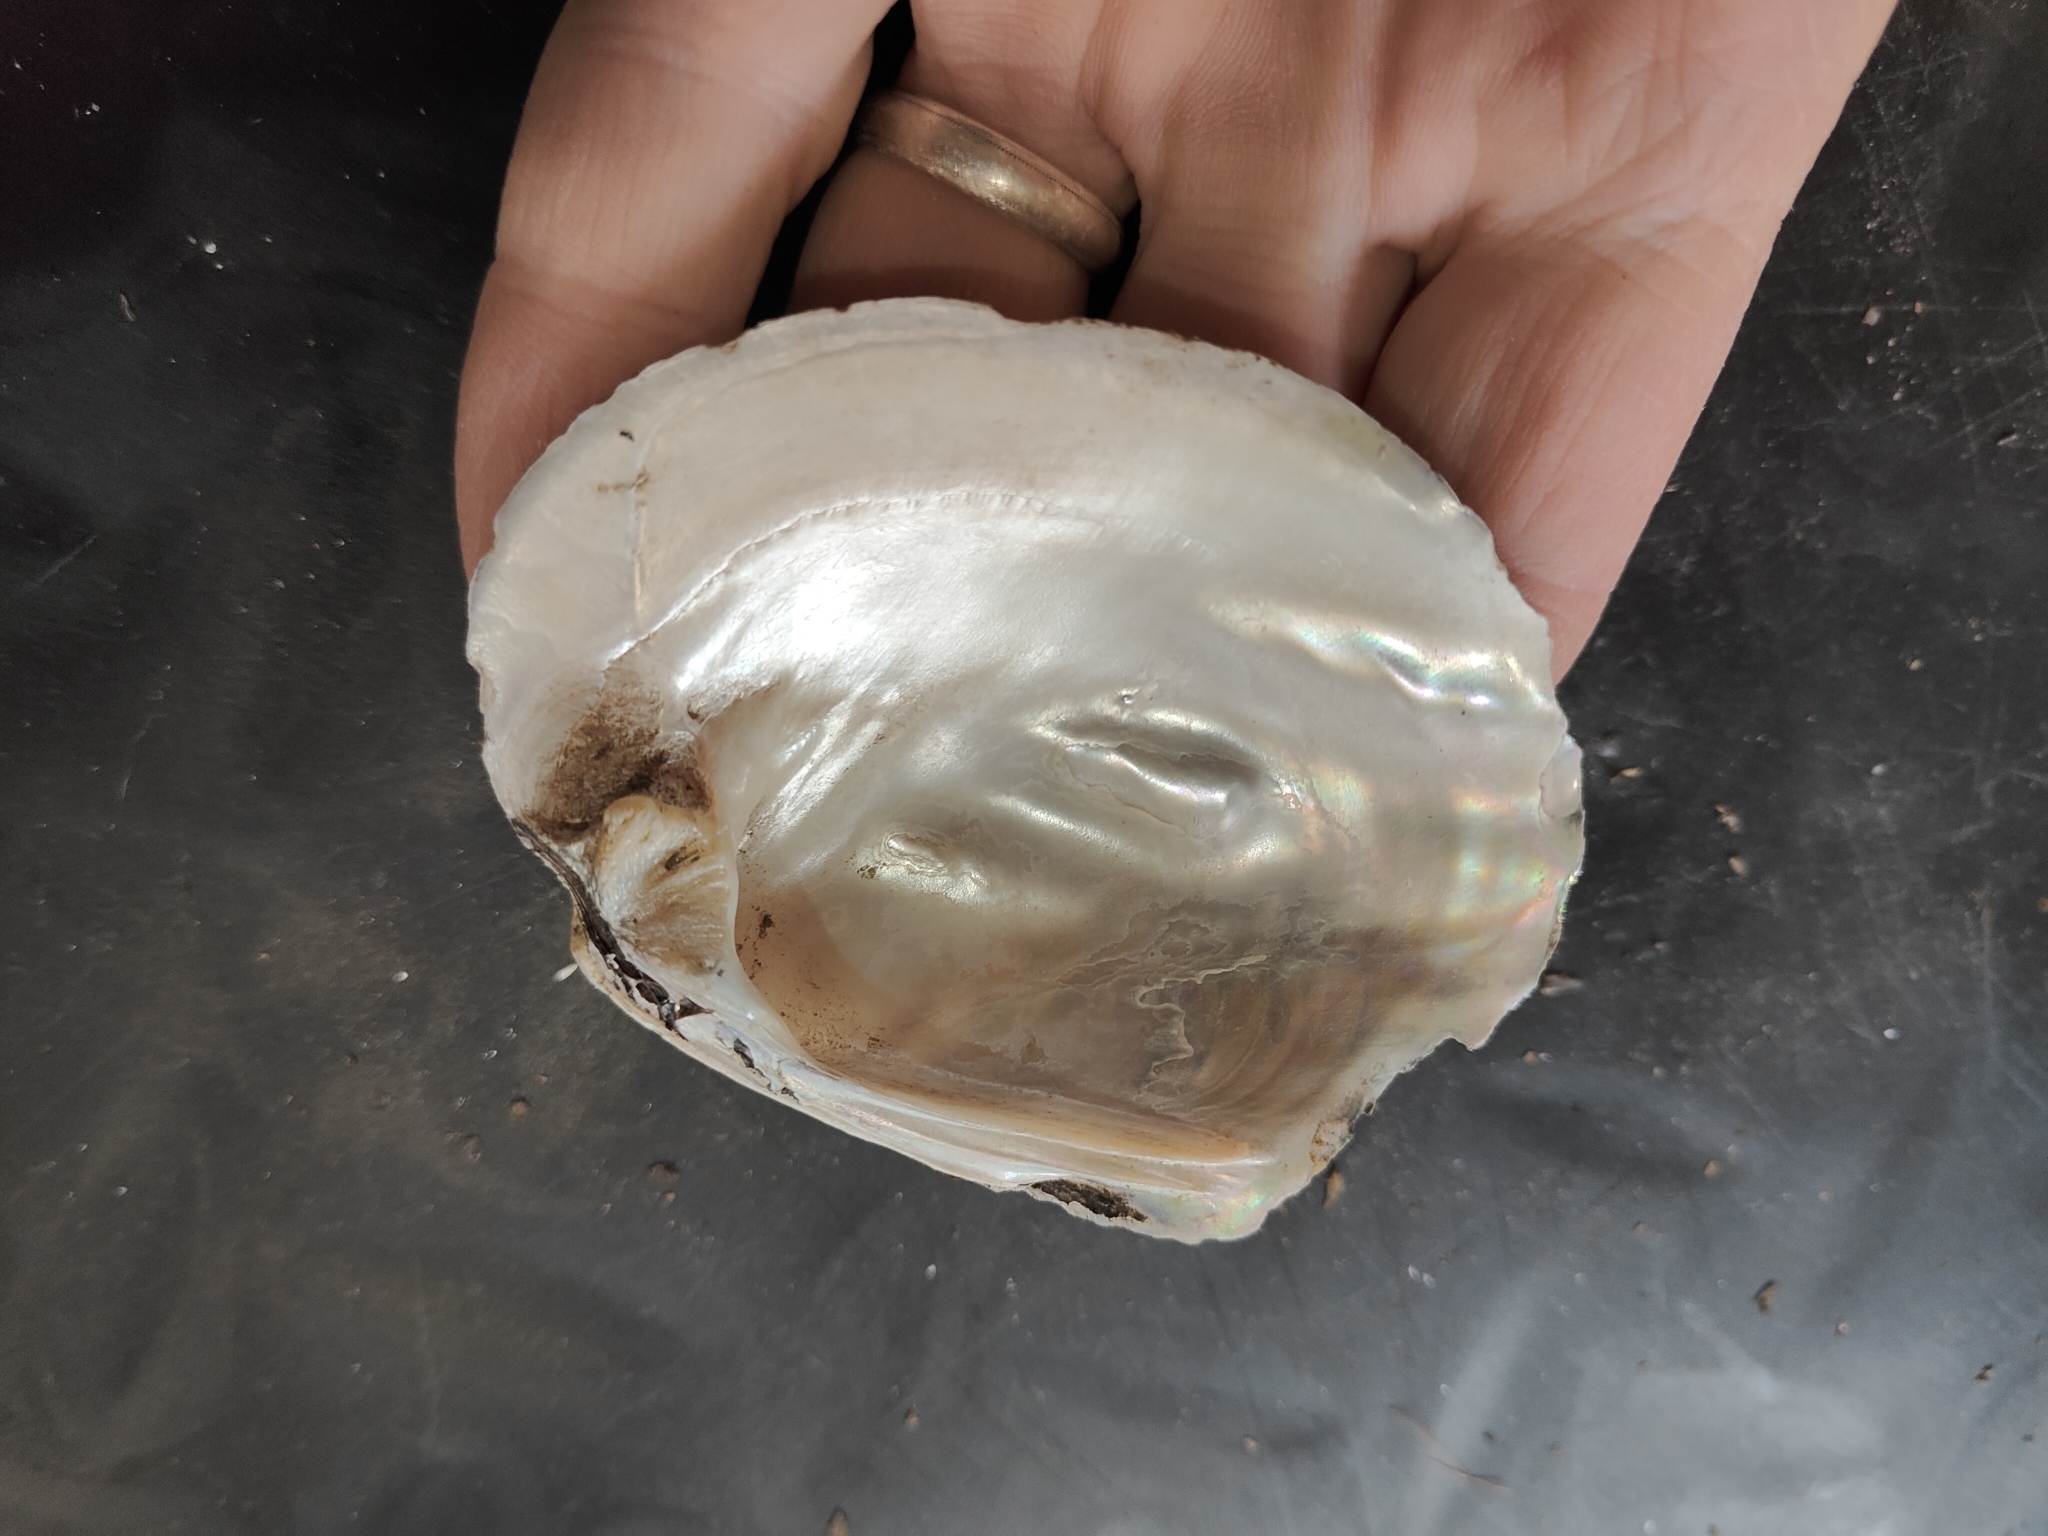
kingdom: Animalia
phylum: Mollusca
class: Bivalvia
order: Unionida
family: Unionidae
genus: Amblema
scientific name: Amblema plicata
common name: Threeridge
